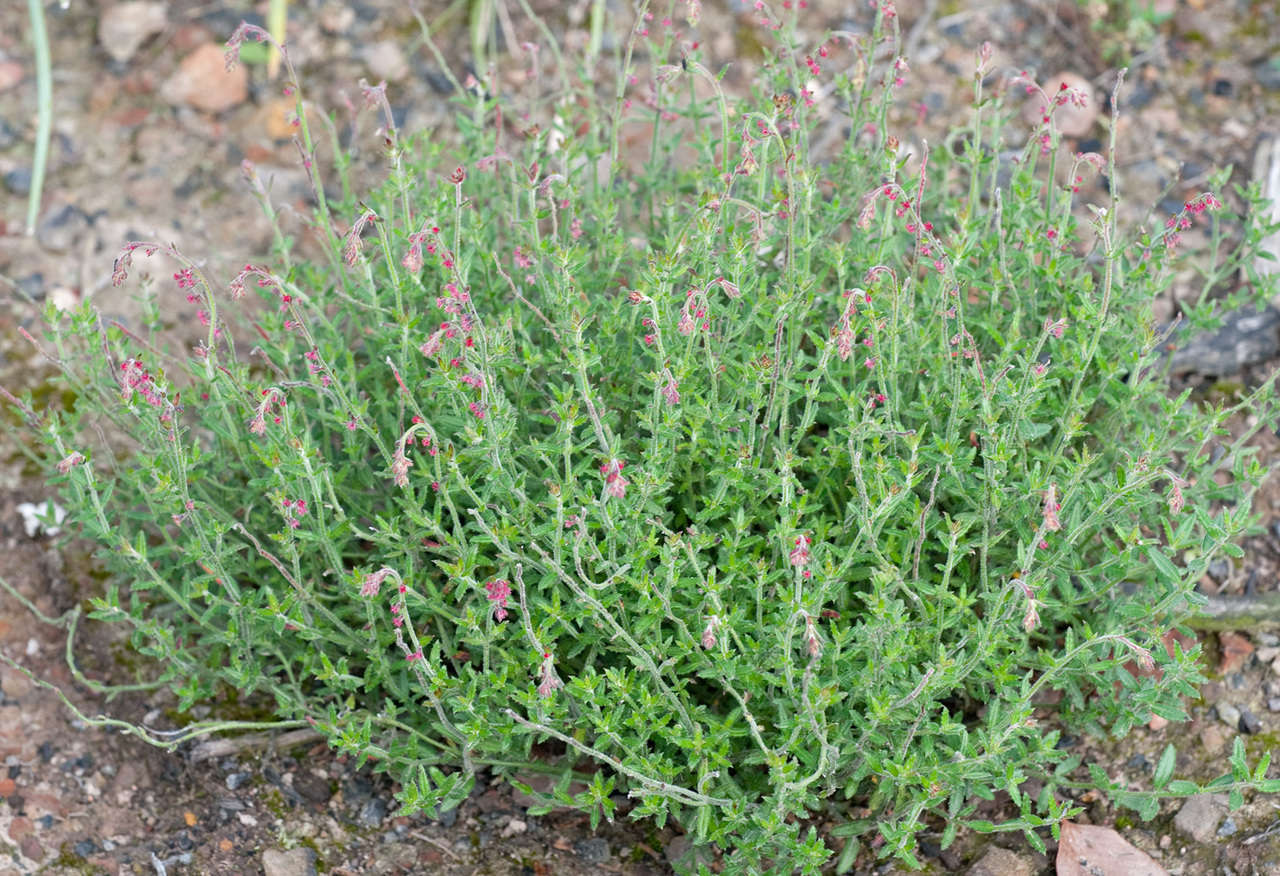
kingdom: Plantae
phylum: Tracheophyta
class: Magnoliopsida
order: Saxifragales
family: Haloragaceae
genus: Gonocarpus
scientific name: Gonocarpus tetragynus
